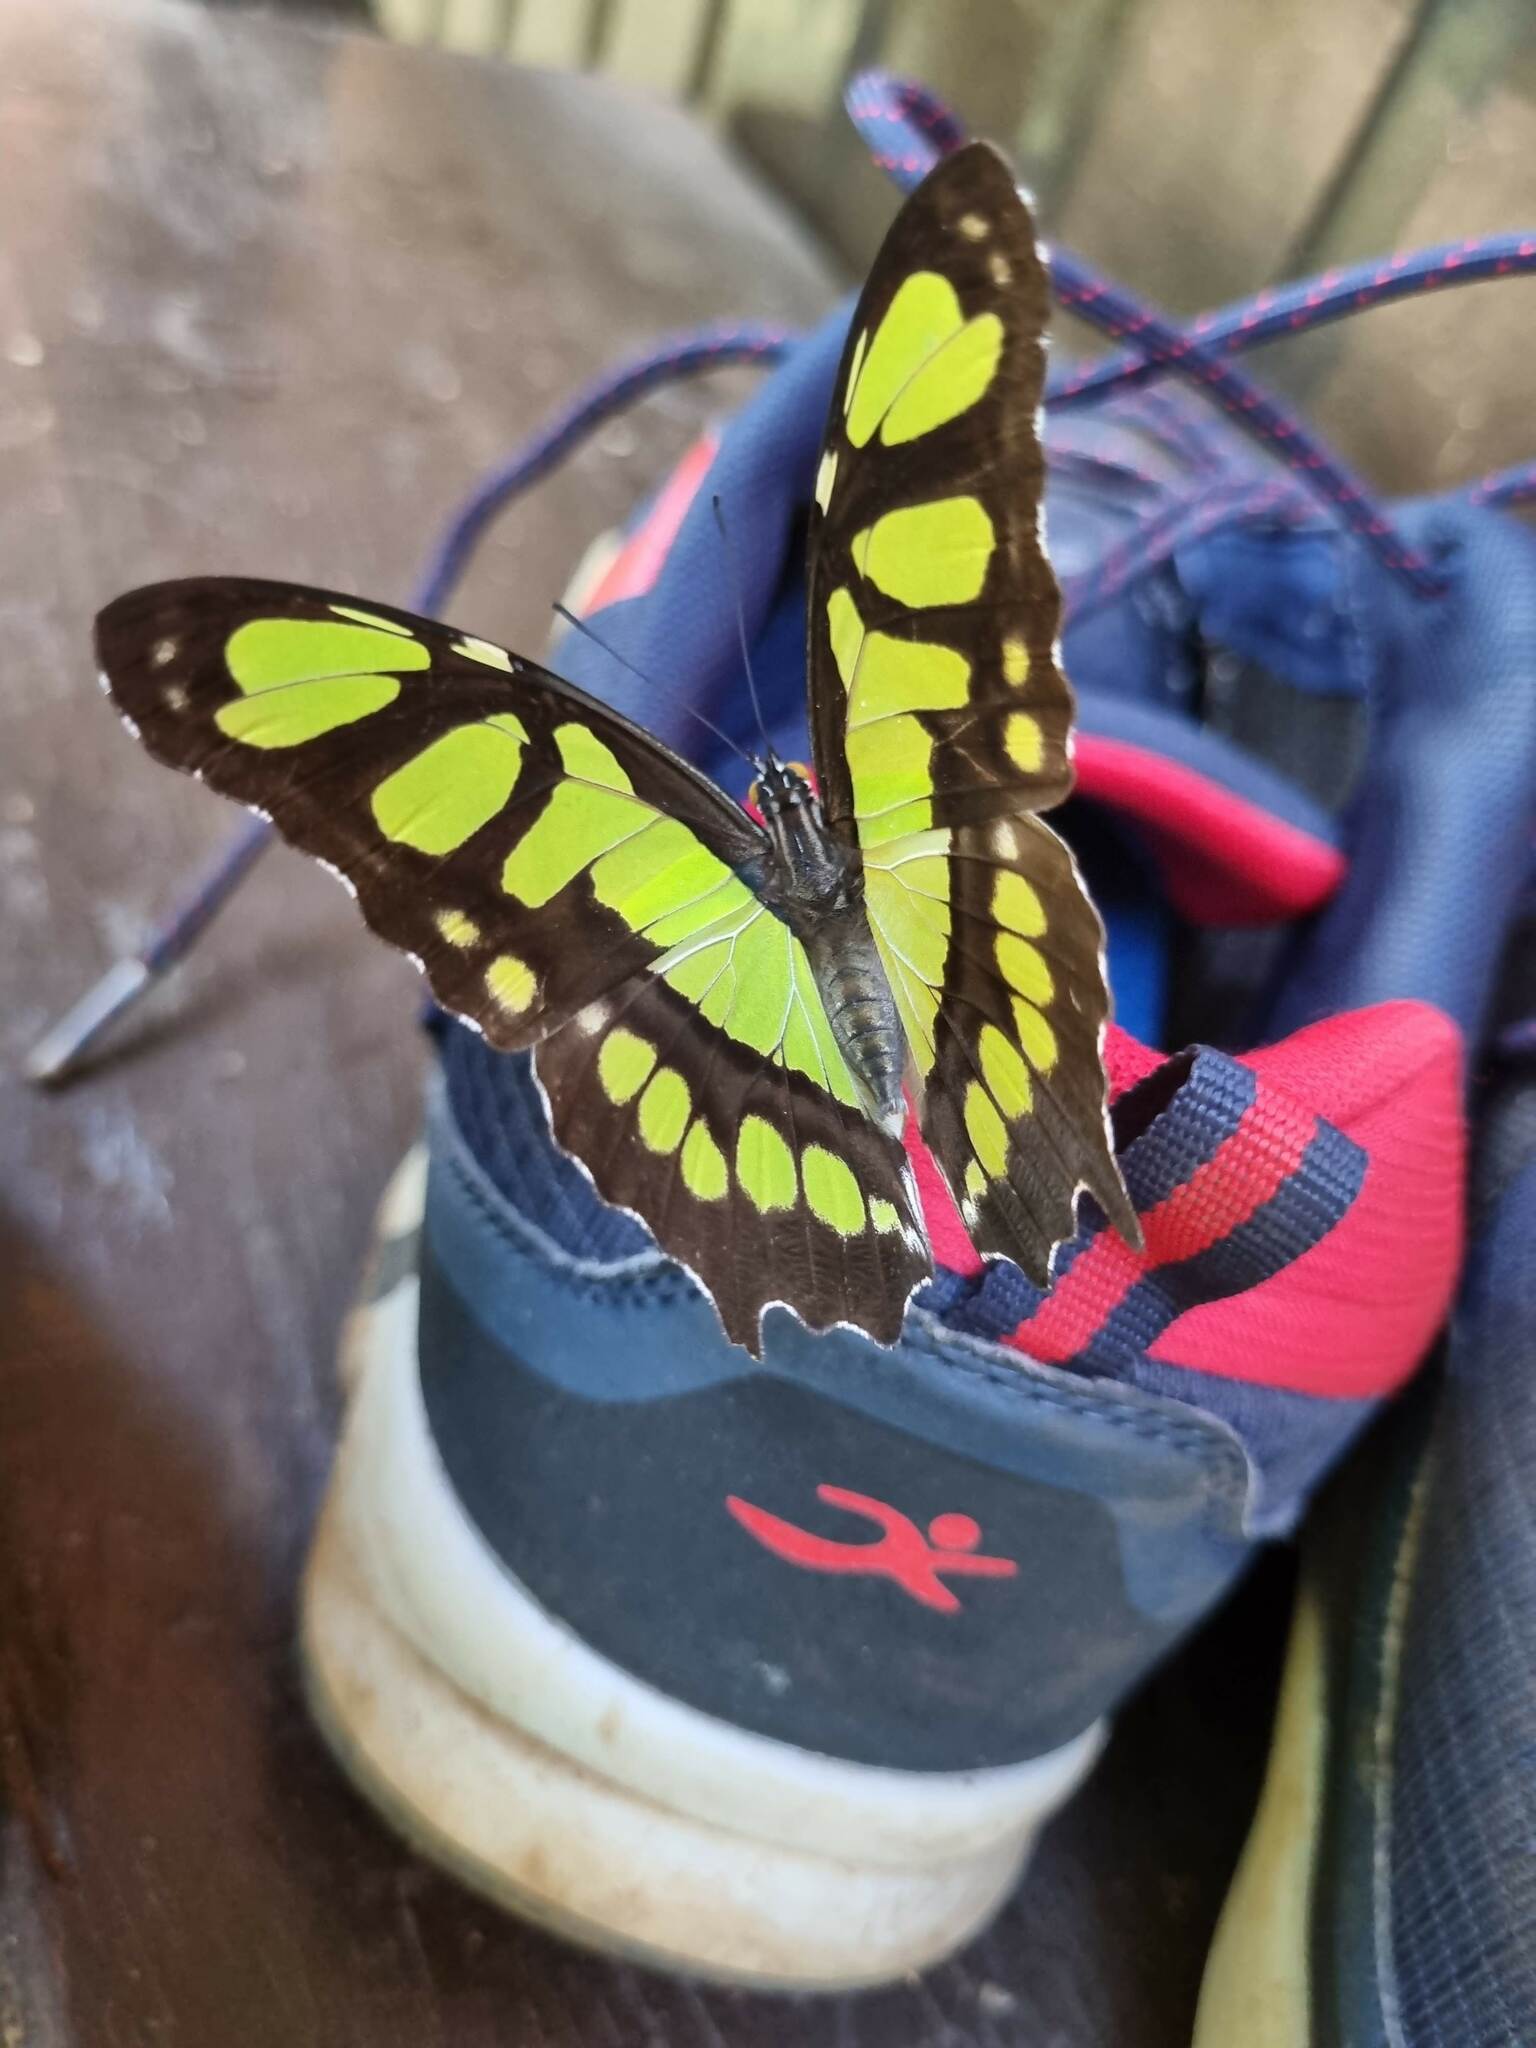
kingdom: Animalia
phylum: Arthropoda
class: Insecta
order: Lepidoptera
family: Nymphalidae
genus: Siproeta
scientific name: Siproeta stelenes
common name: Malachite
